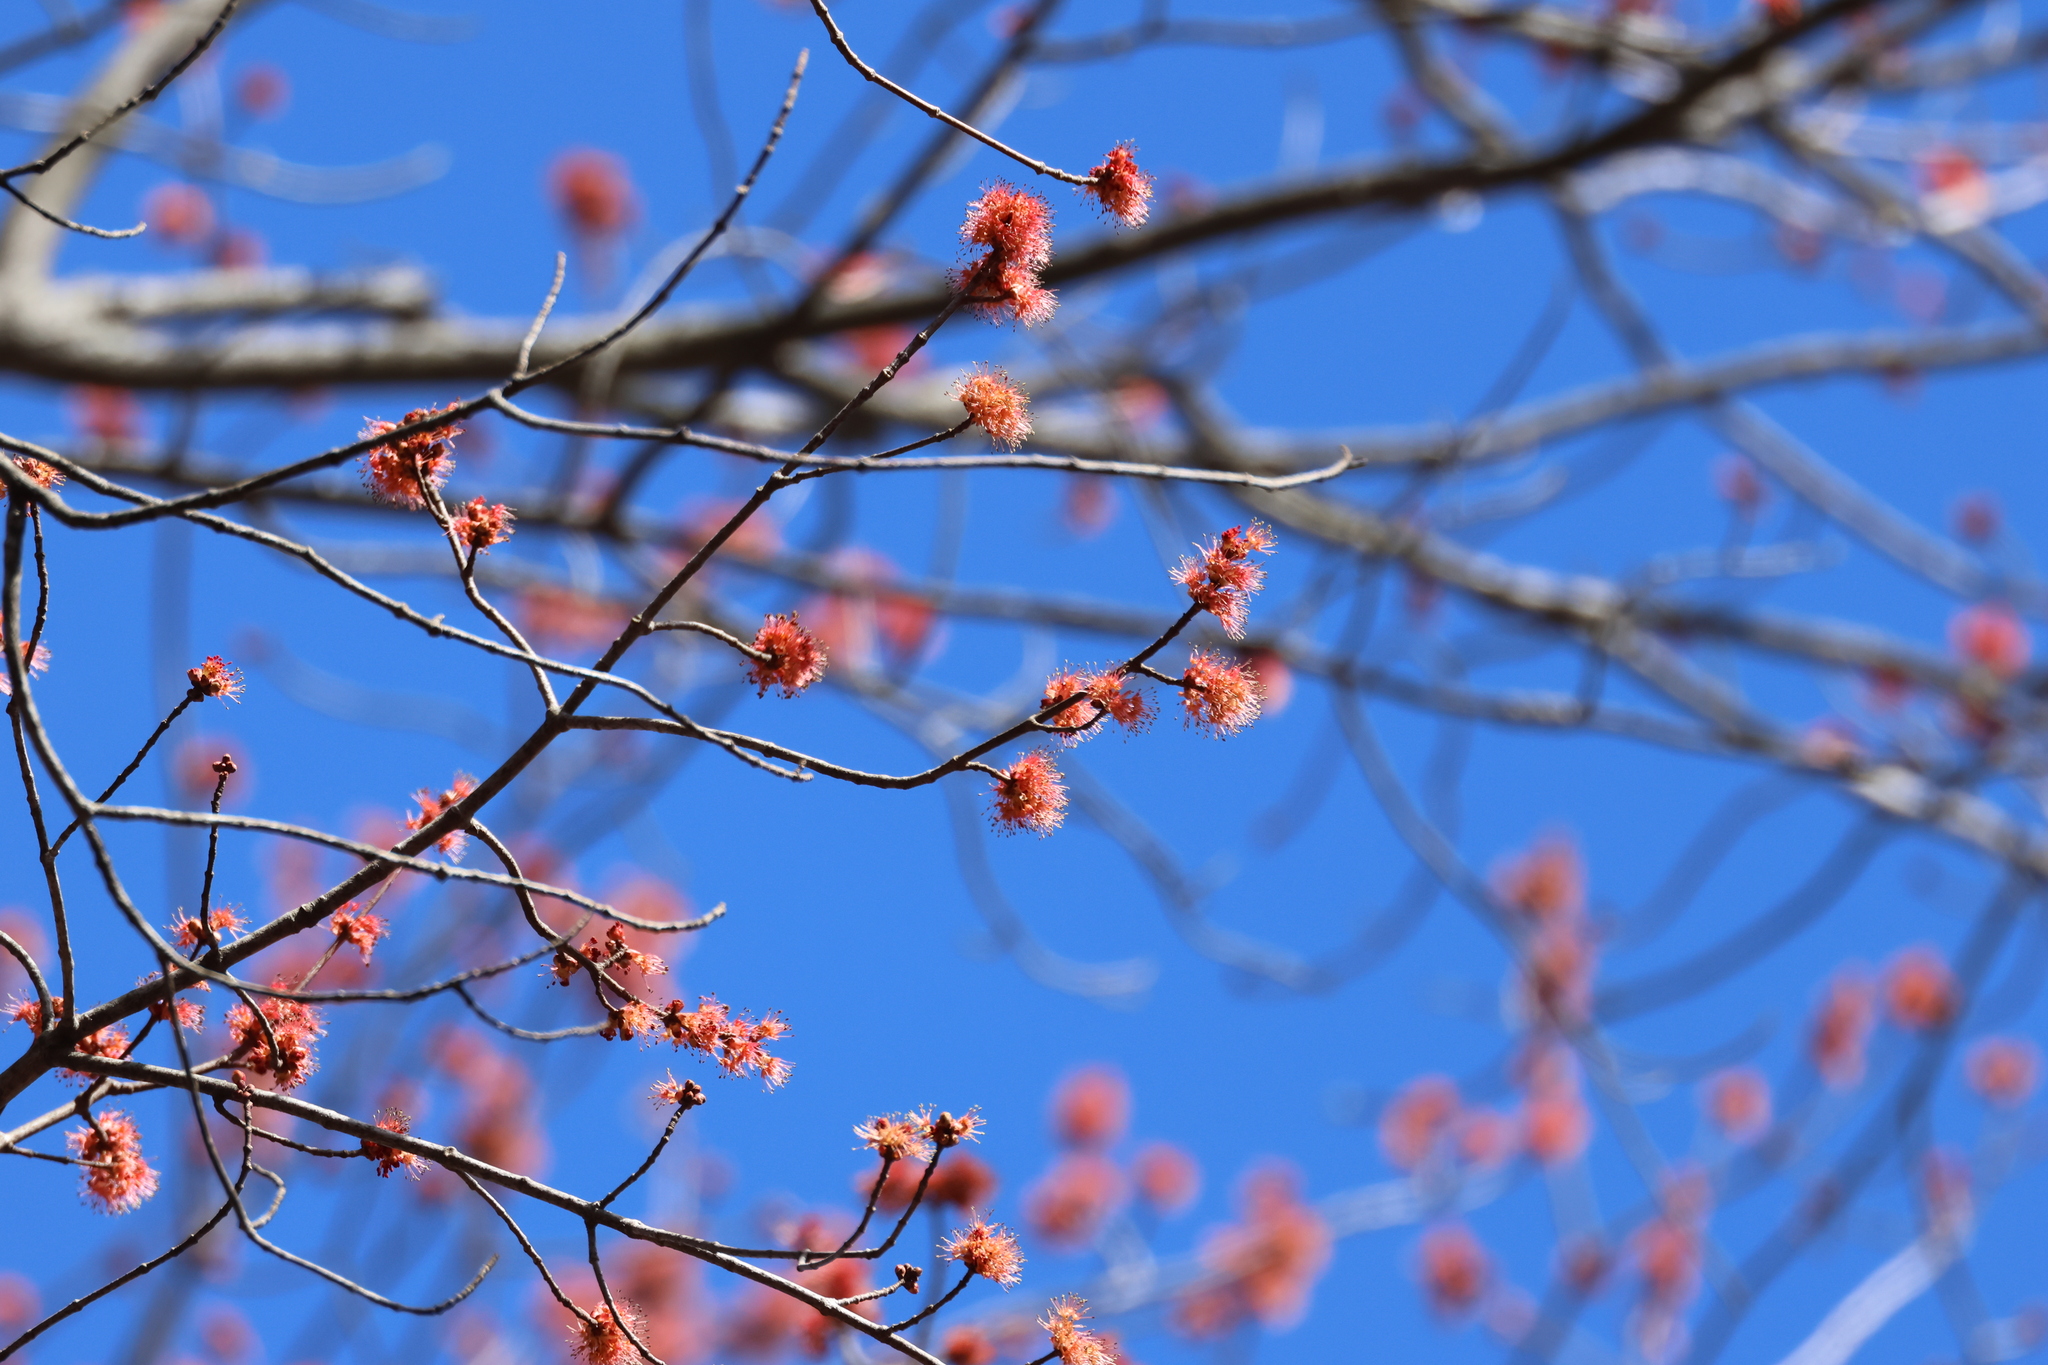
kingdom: Plantae
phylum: Tracheophyta
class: Magnoliopsida
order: Sapindales
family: Sapindaceae
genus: Acer
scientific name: Acer rubrum
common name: Red maple
